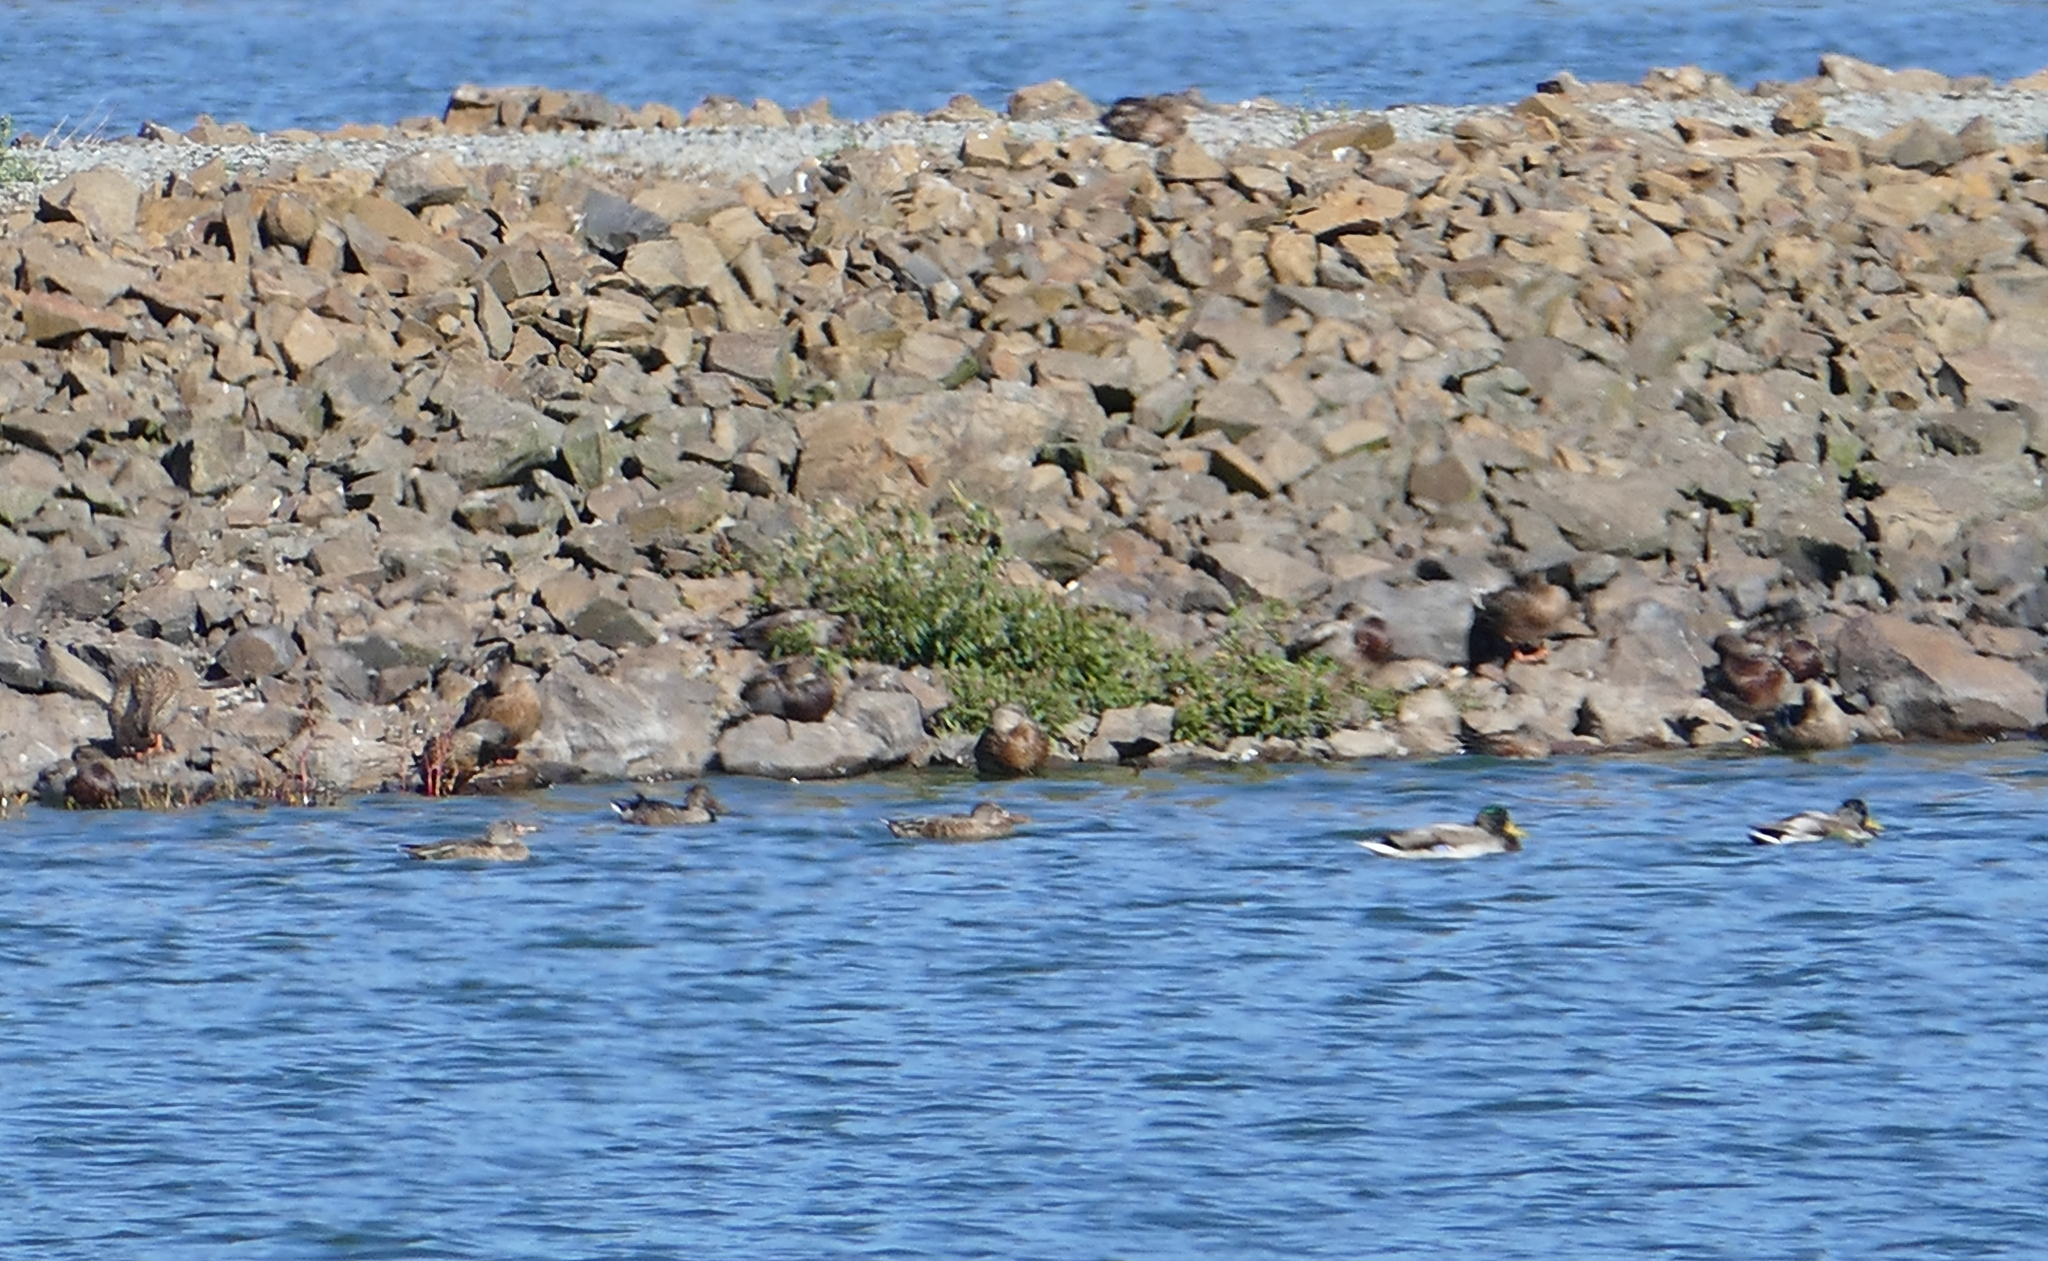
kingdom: Animalia
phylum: Chordata
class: Aves
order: Anseriformes
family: Anatidae
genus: Anas
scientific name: Anas platyrhynchos
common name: Mallard
